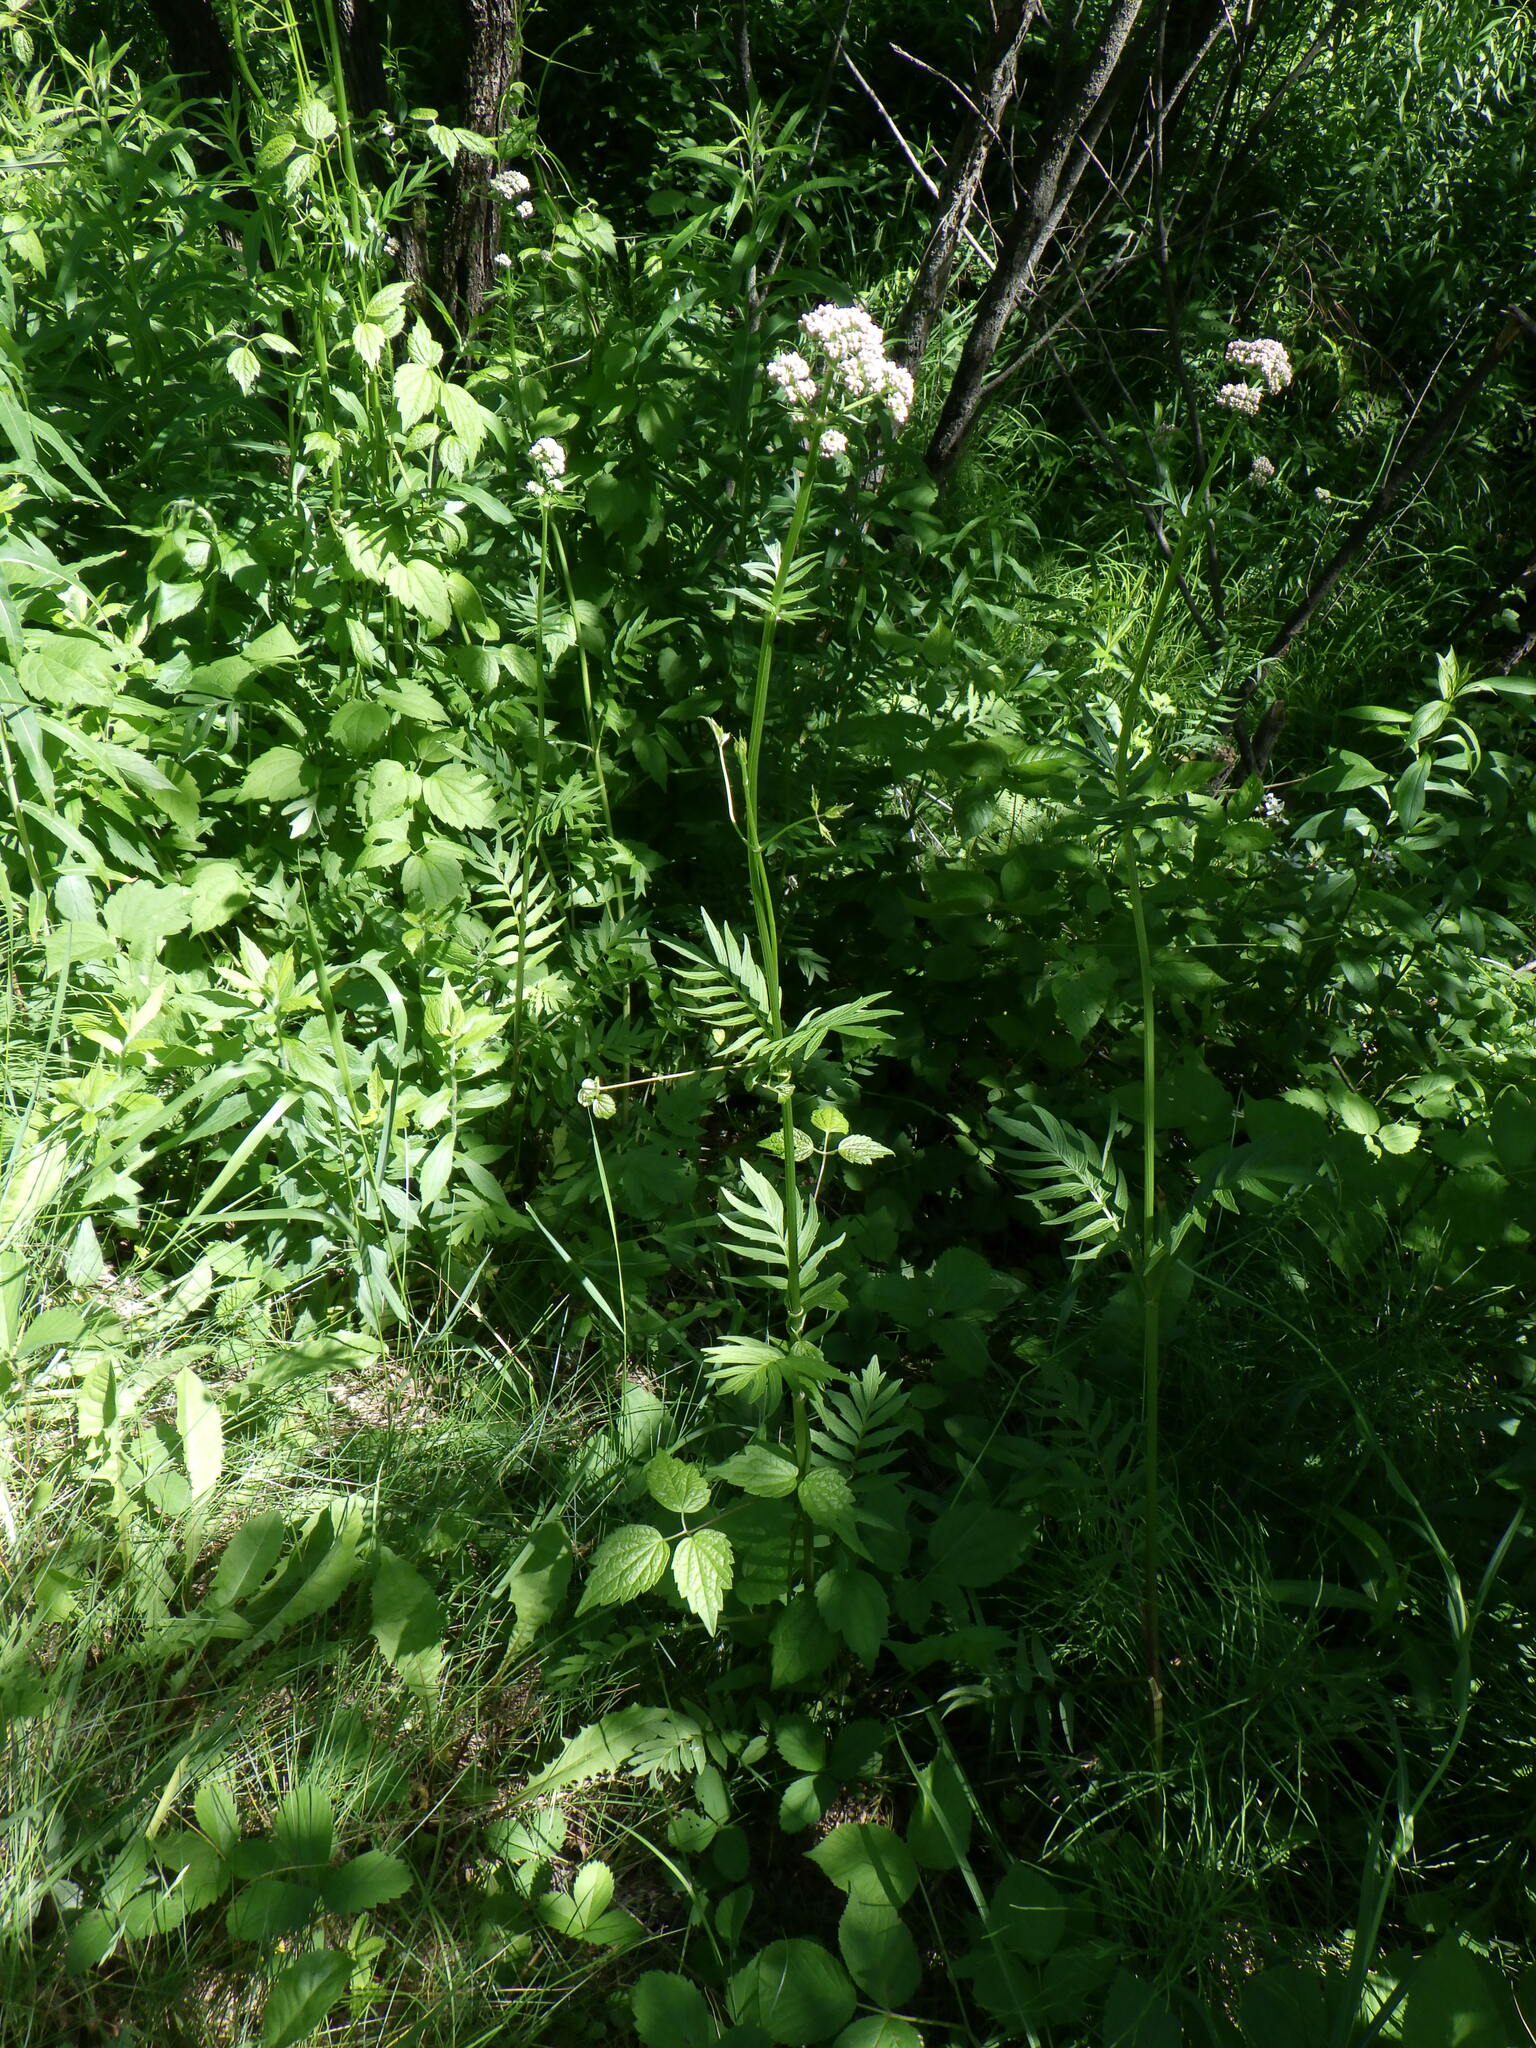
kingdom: Plantae
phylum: Tracheophyta
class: Magnoliopsida
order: Dipsacales
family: Caprifoliaceae
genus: Valeriana
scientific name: Valeriana officinalis
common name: Common valerian
